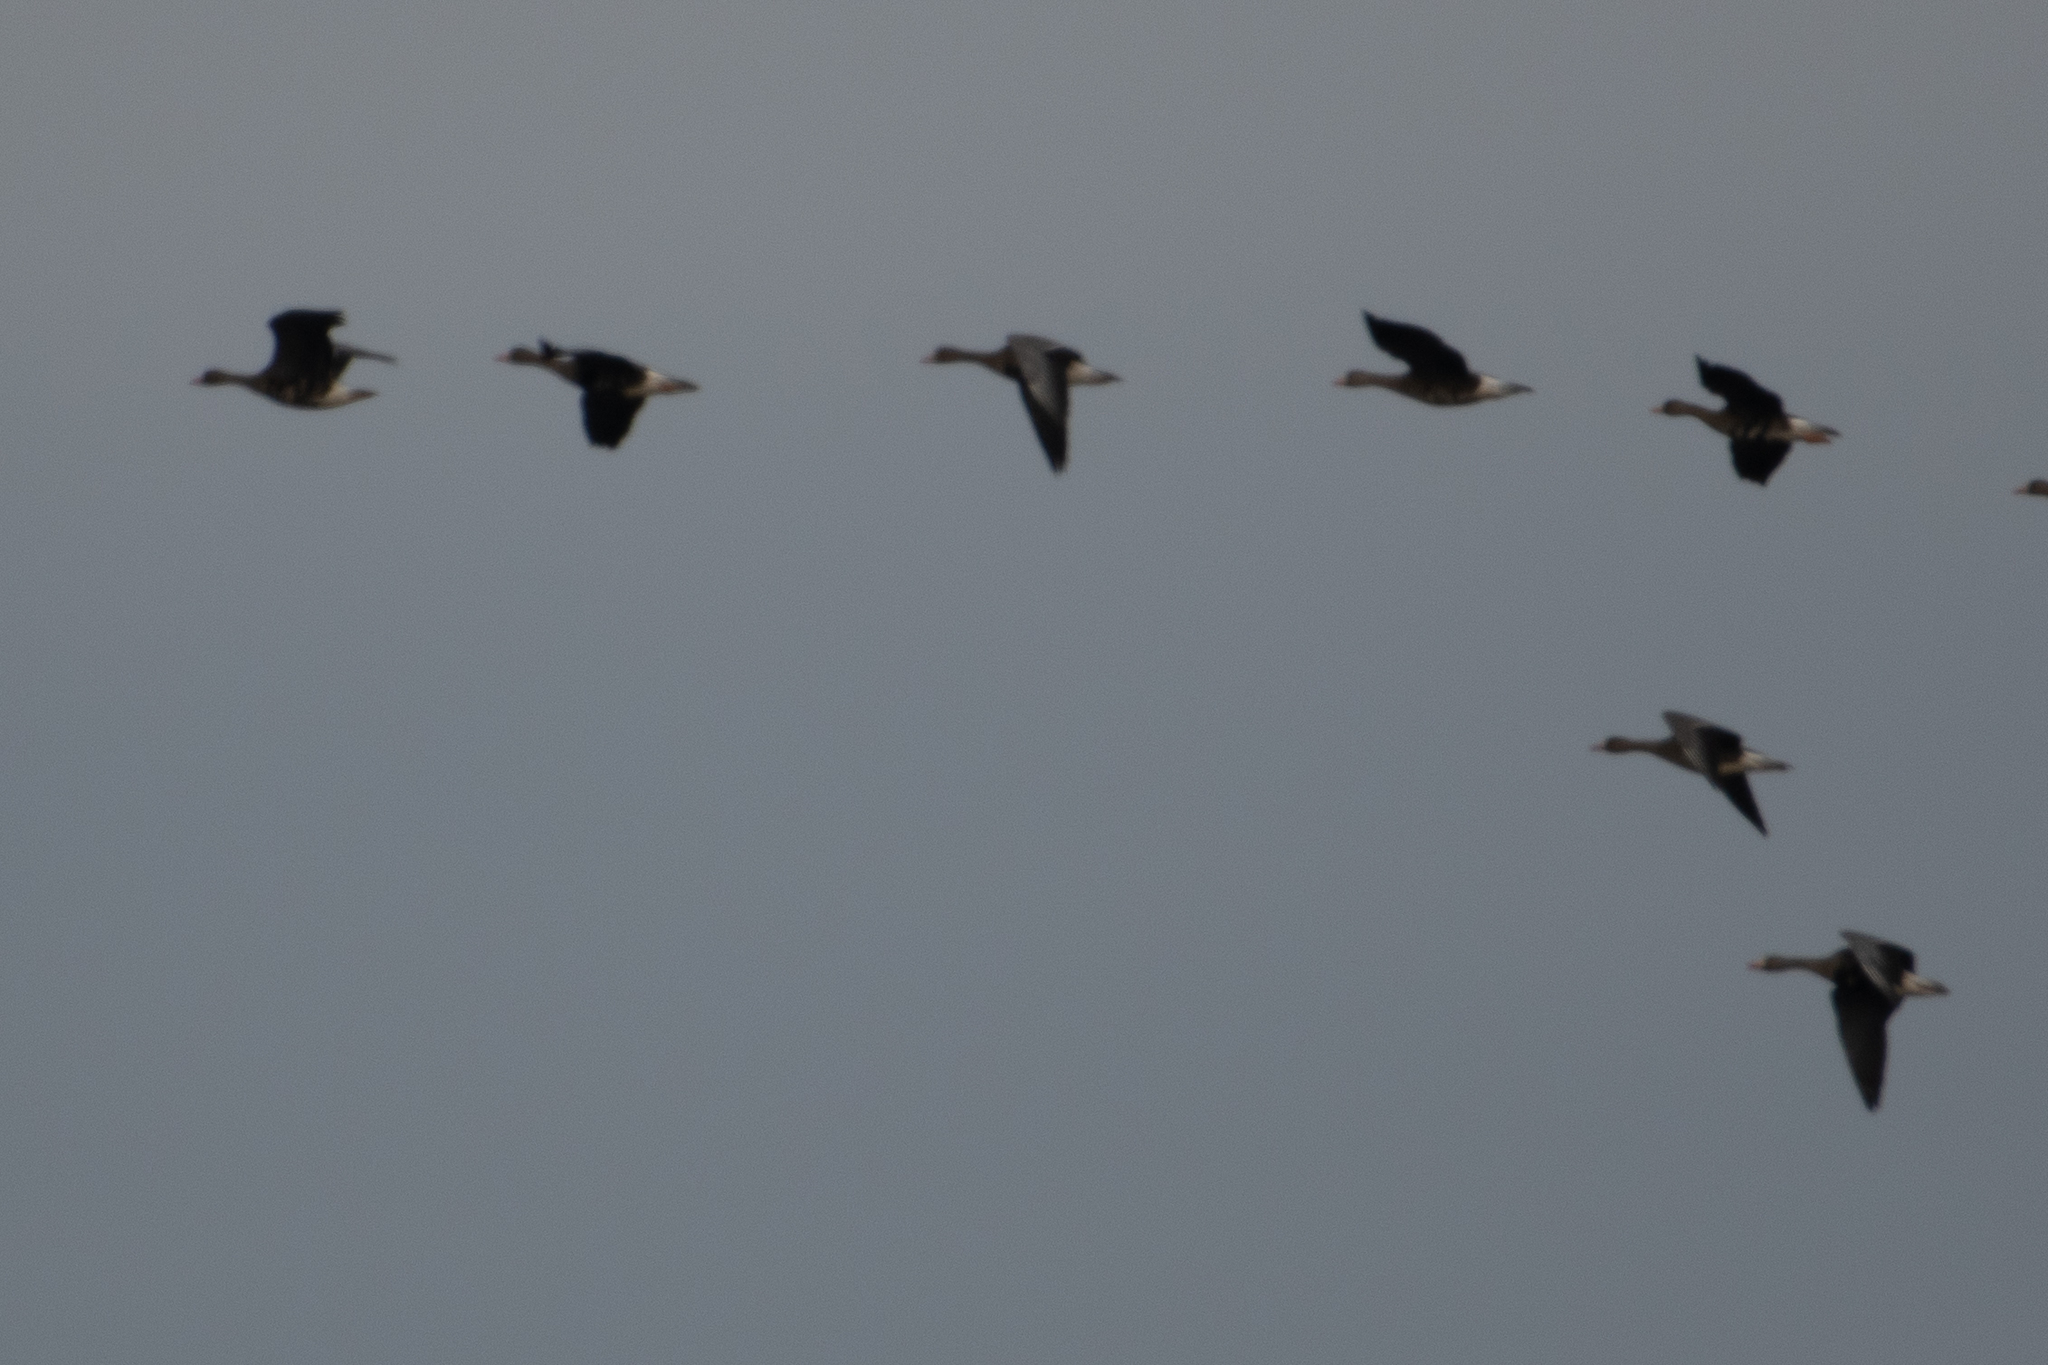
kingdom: Animalia
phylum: Chordata
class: Aves
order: Anseriformes
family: Anatidae
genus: Anser
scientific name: Anser albifrons
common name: Greater white-fronted goose
